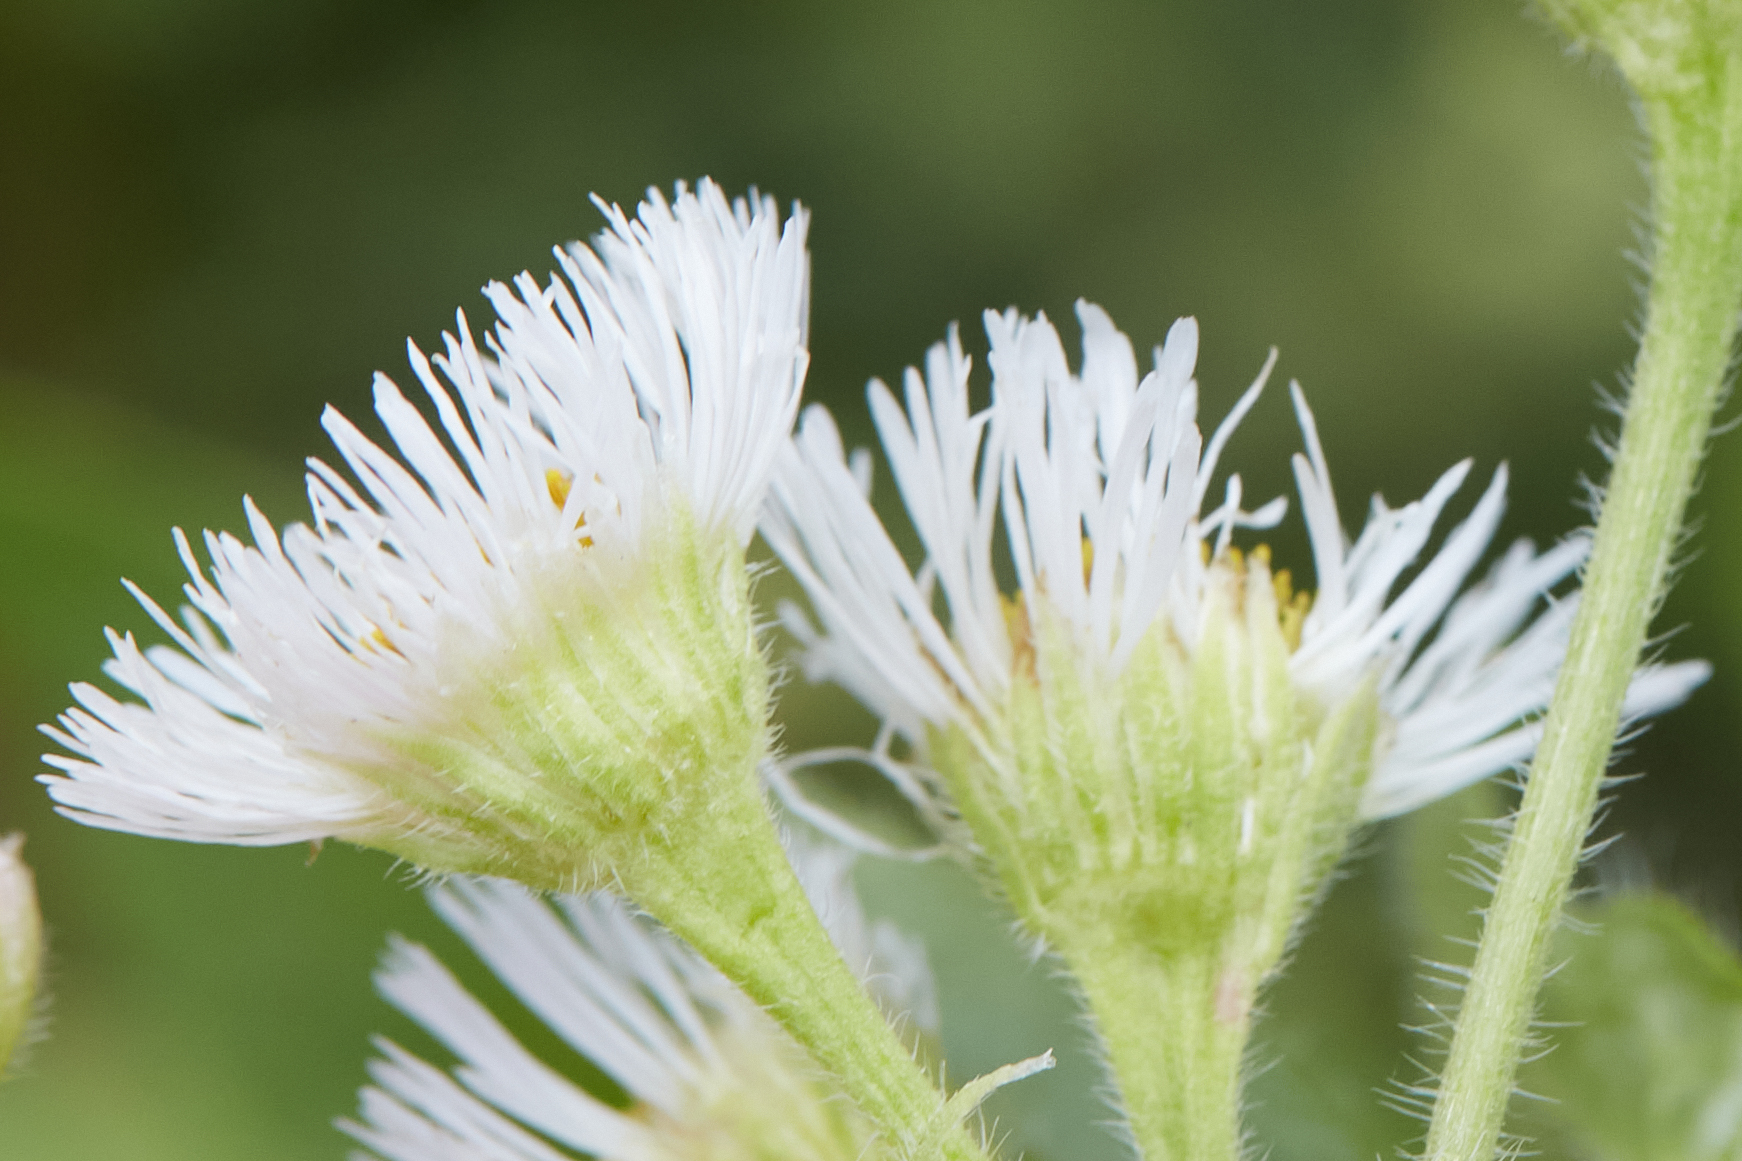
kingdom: Plantae
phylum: Tracheophyta
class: Magnoliopsida
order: Asterales
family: Asteraceae
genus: Erigeron
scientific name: Erigeron philadelphicus
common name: Robin's-plantain
